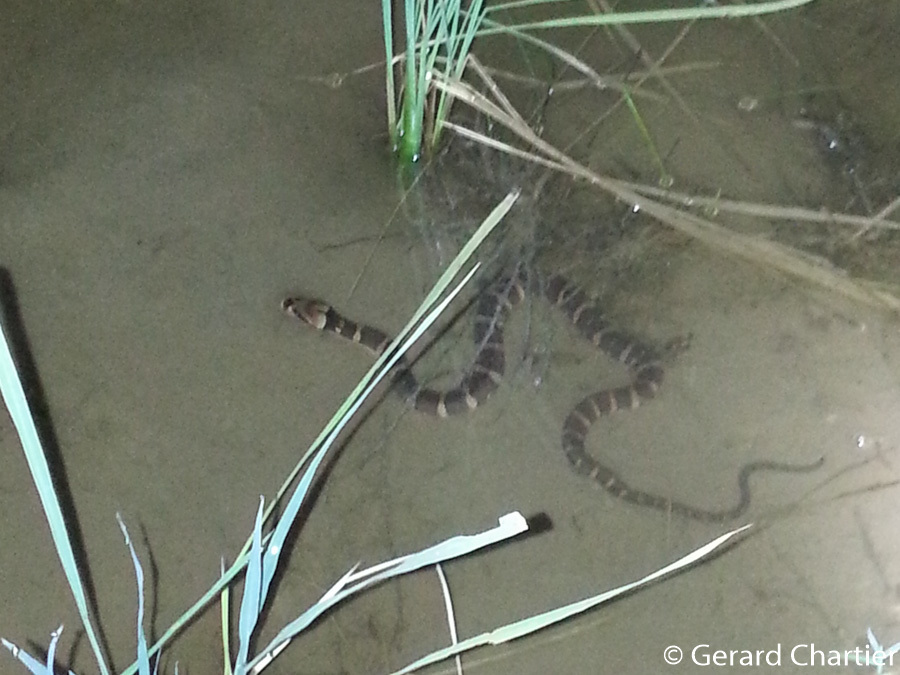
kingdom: Animalia
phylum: Chordata
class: Squamata
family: Homalopsidae
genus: Homalopsis
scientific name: Homalopsis mereljcoxi
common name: Jack’s water snake
